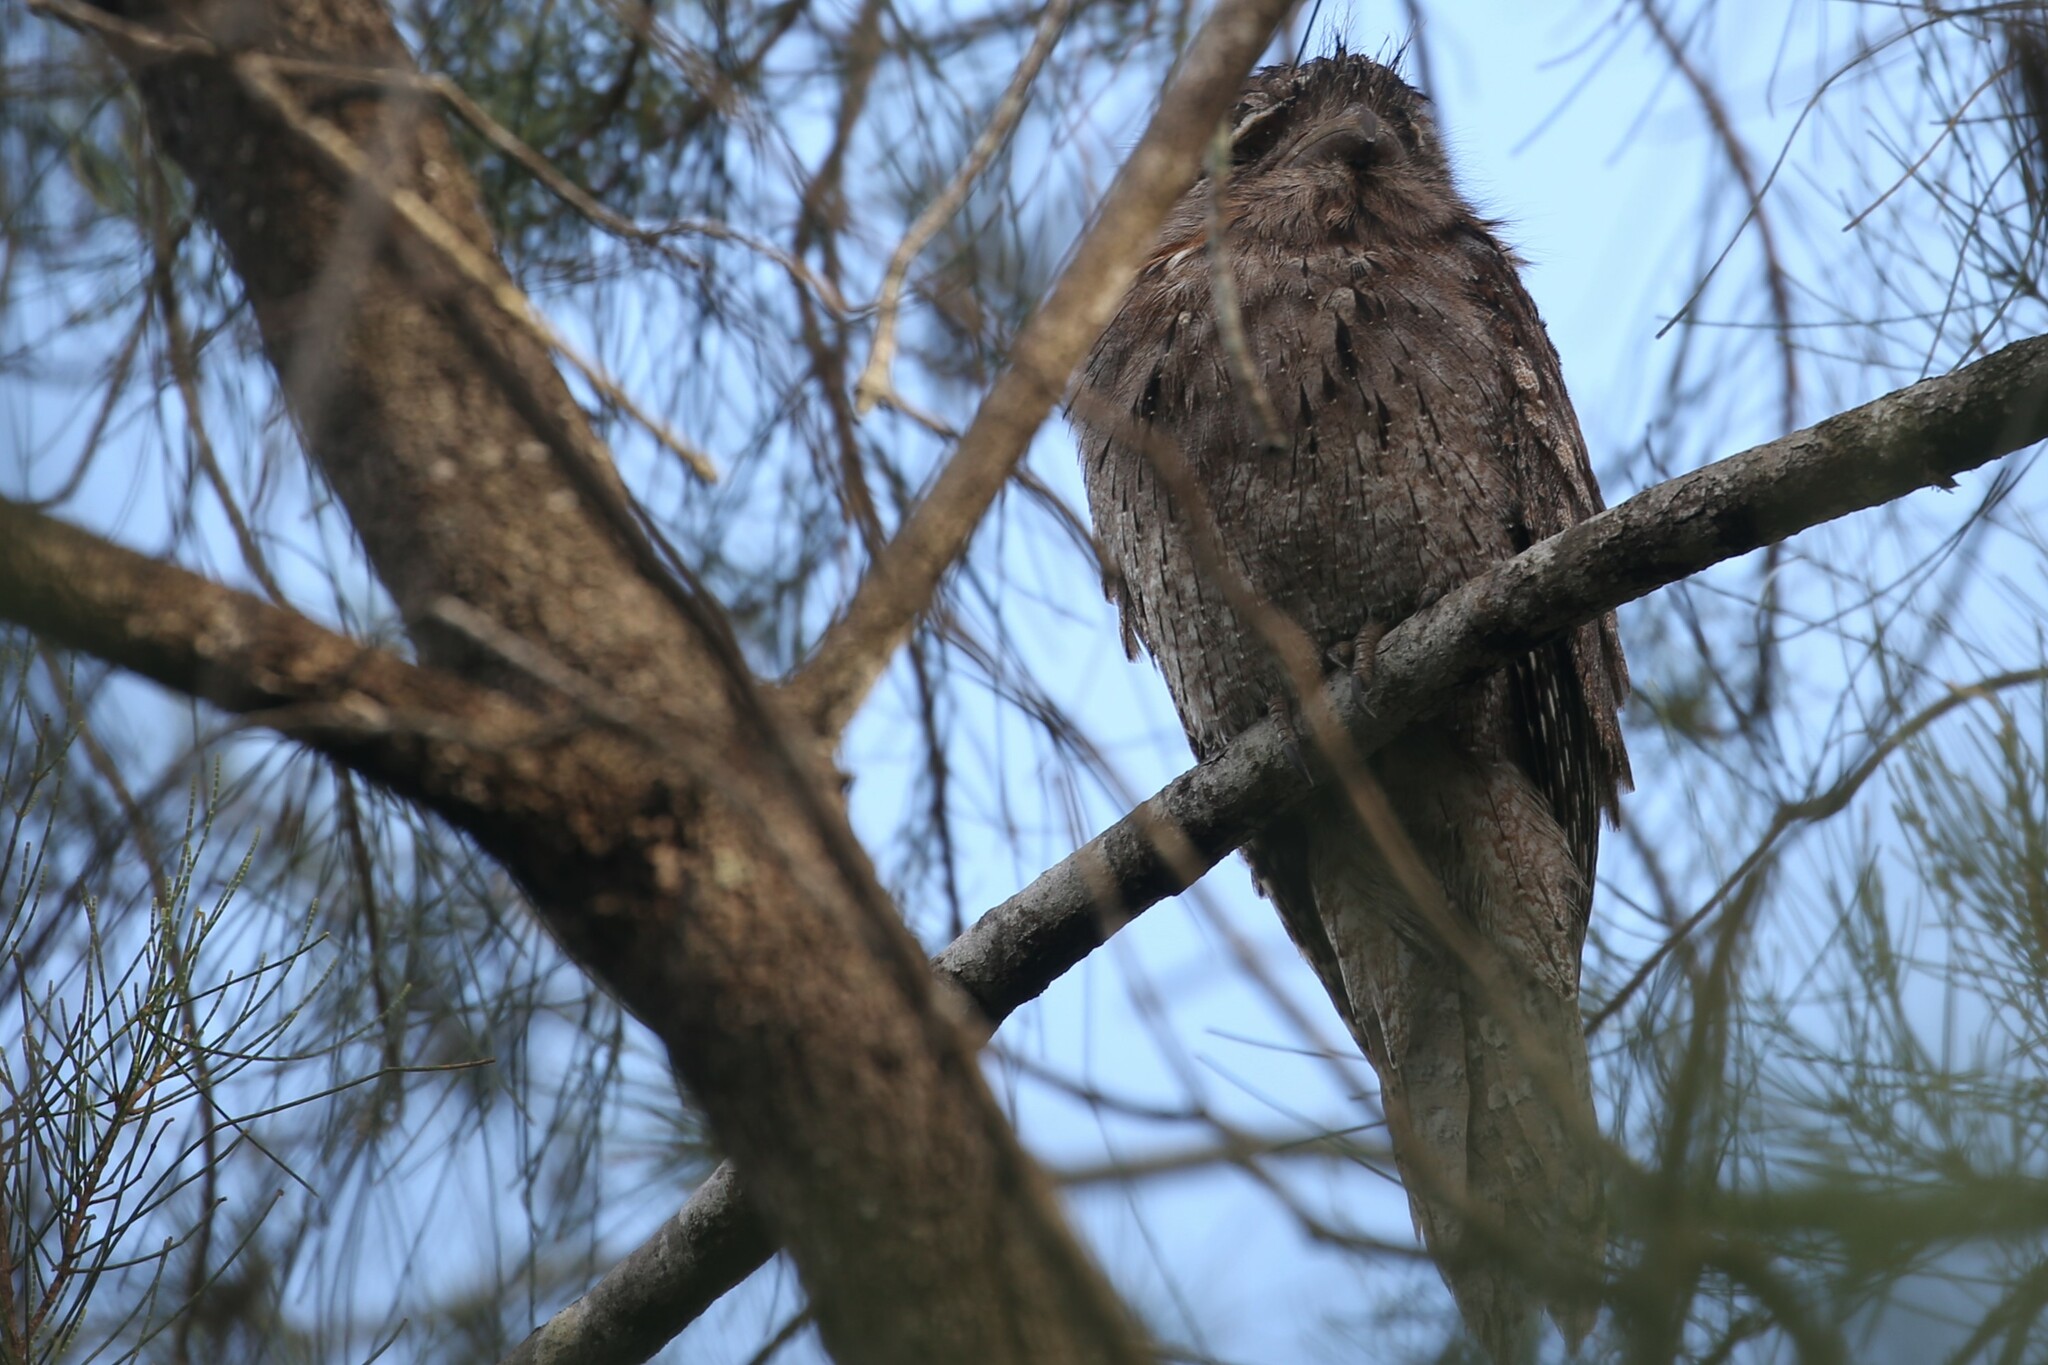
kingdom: Animalia
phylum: Chordata
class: Aves
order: Caprimulgiformes
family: Podargidae
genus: Podargus
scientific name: Podargus strigoides
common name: Tawny frogmouth
